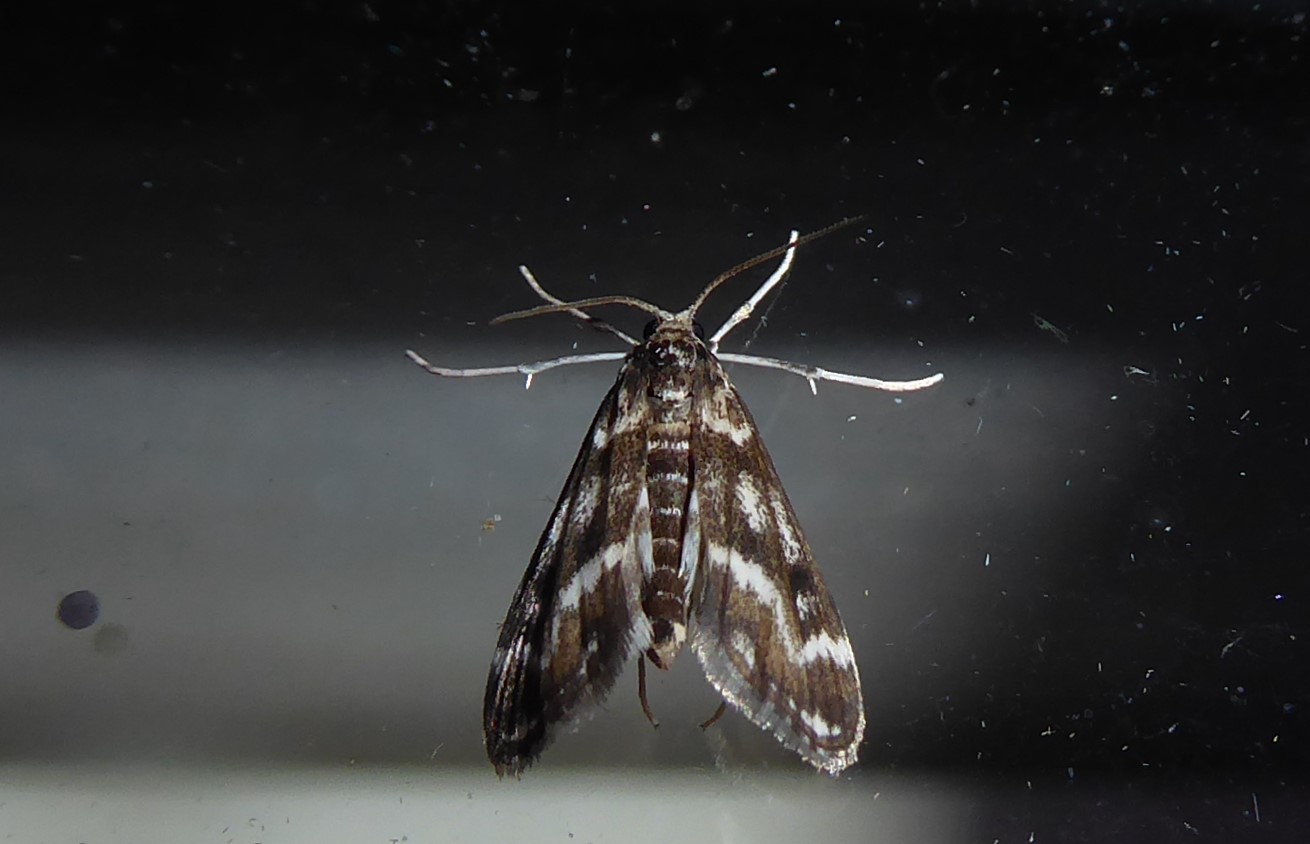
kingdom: Animalia
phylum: Arthropoda
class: Insecta
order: Lepidoptera
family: Crambidae
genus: Hygraula
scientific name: Hygraula nitens
